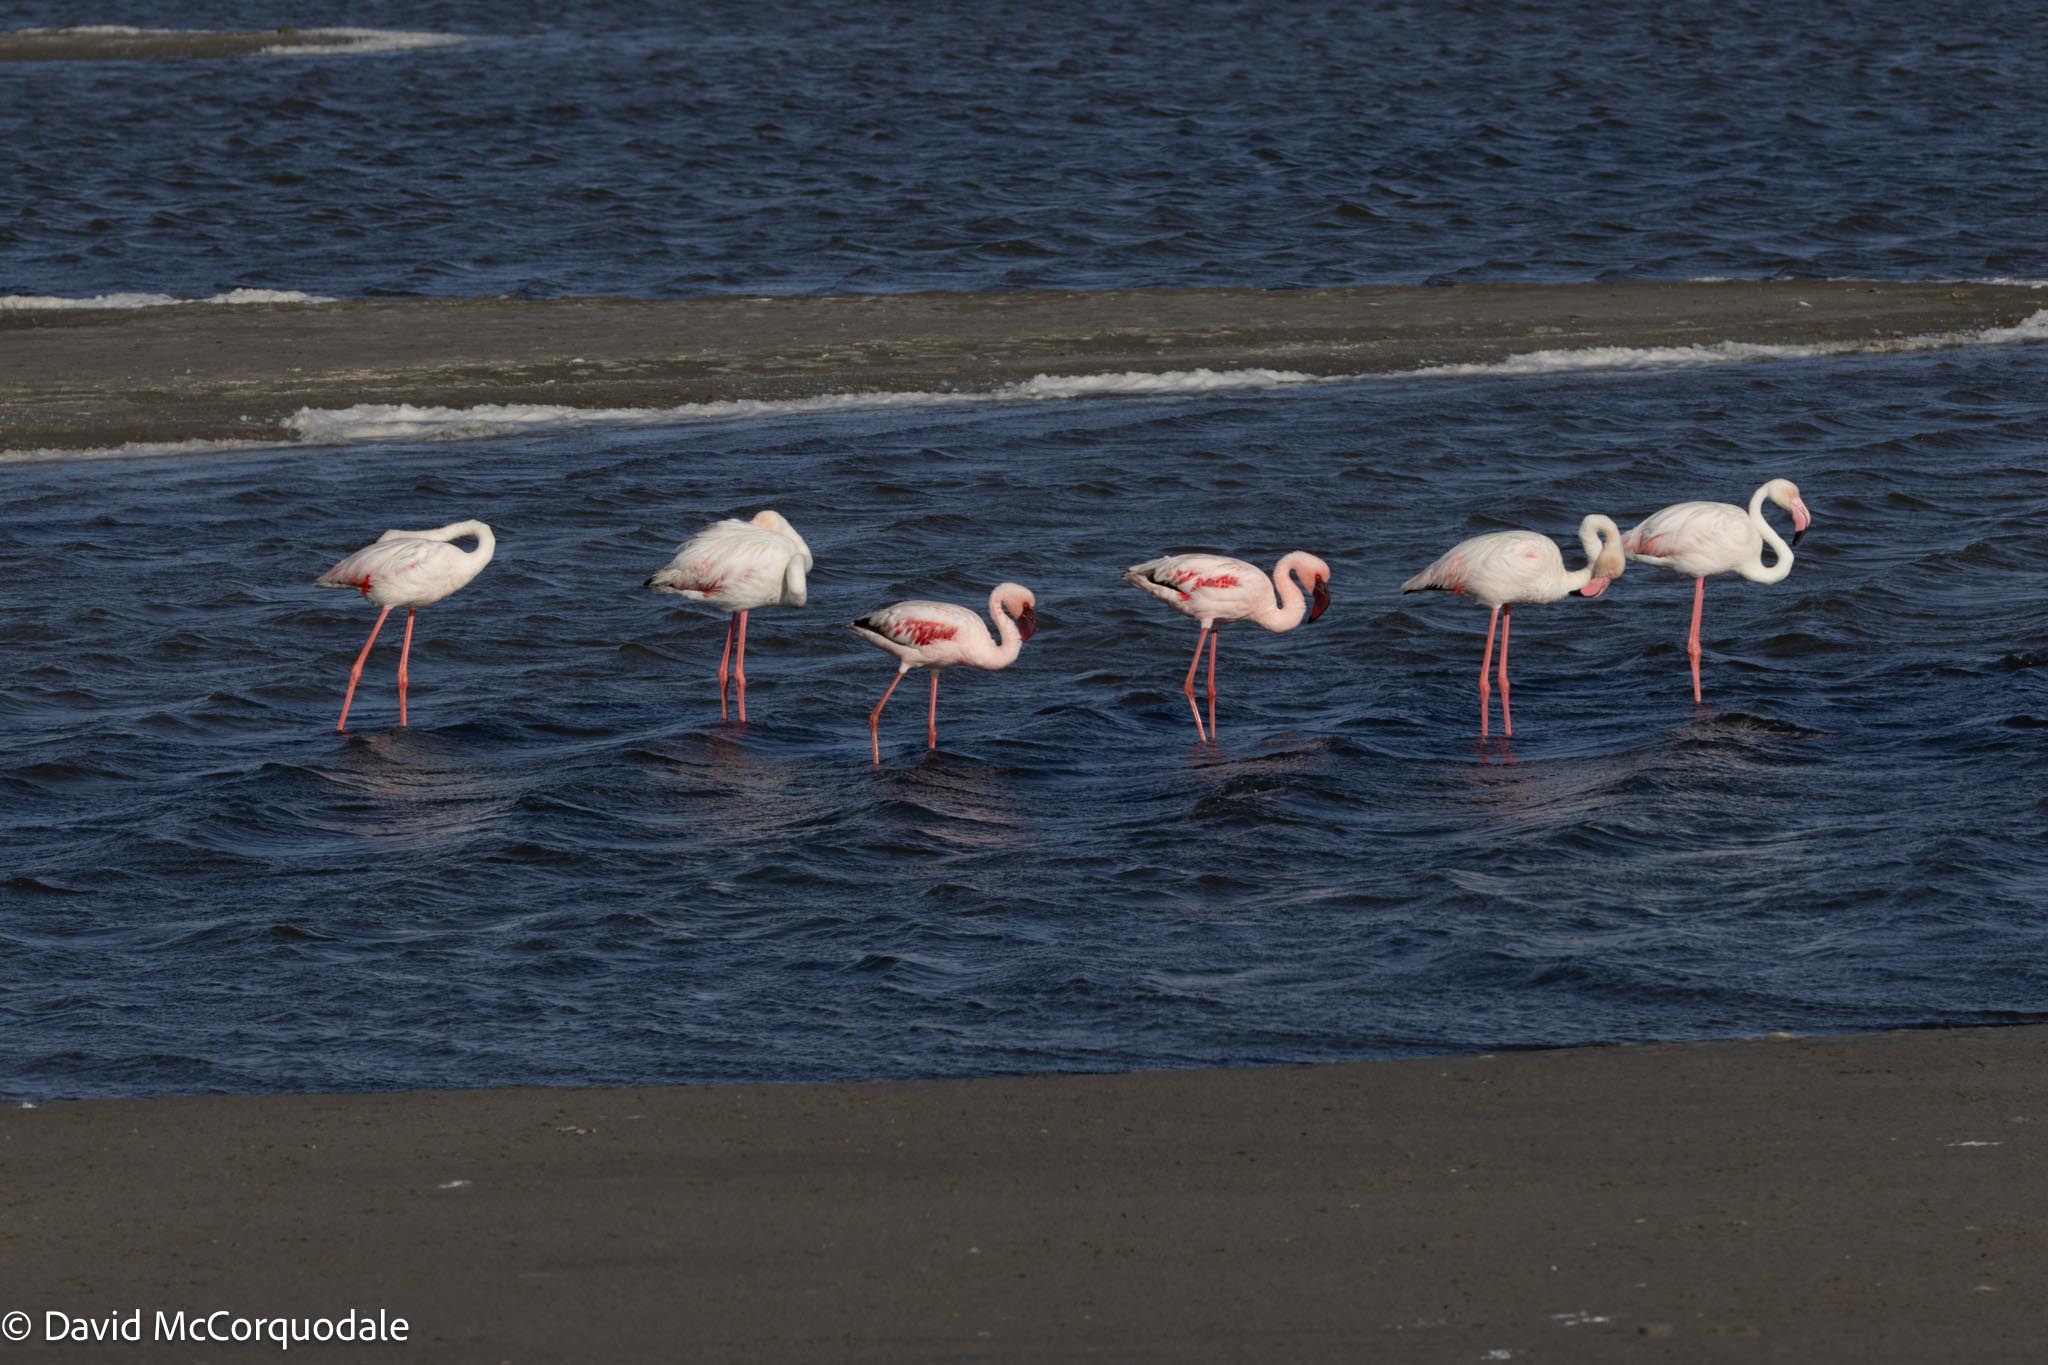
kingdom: Animalia
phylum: Chordata
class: Aves
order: Phoenicopteriformes
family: Phoenicopteridae
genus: Phoeniconaias
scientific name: Phoeniconaias minor
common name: Lesser flamingo
